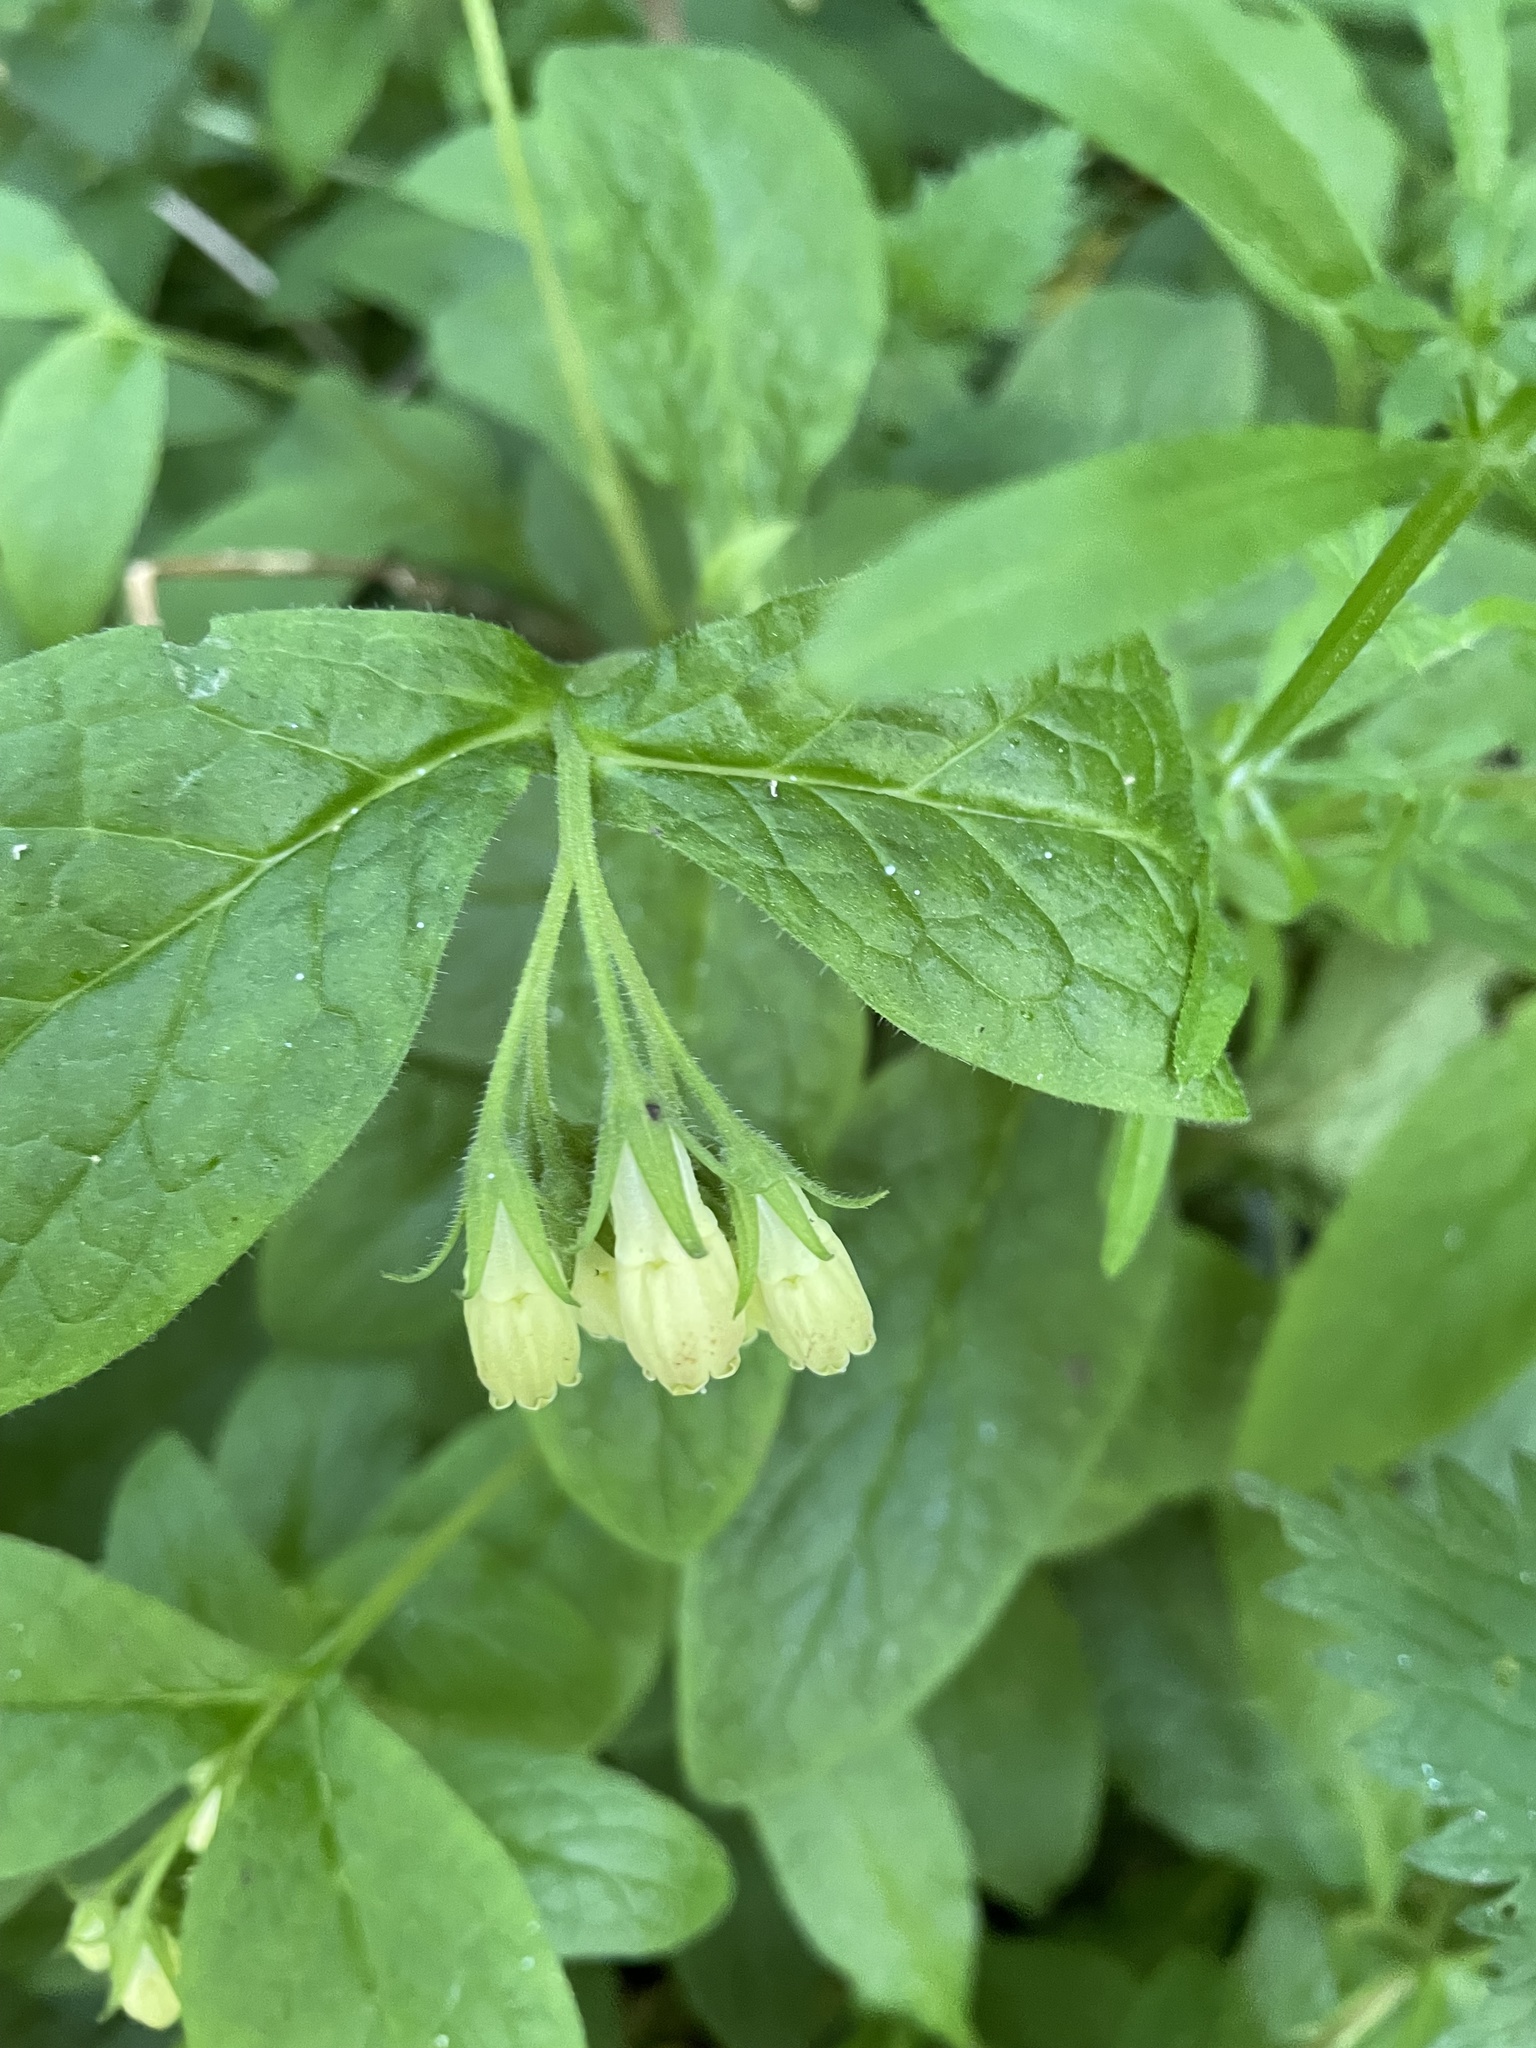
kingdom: Plantae
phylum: Tracheophyta
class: Magnoliopsida
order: Boraginales
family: Boraginaceae
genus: Symphytum
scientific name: Symphytum tuberosum
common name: Tuberous comfrey
